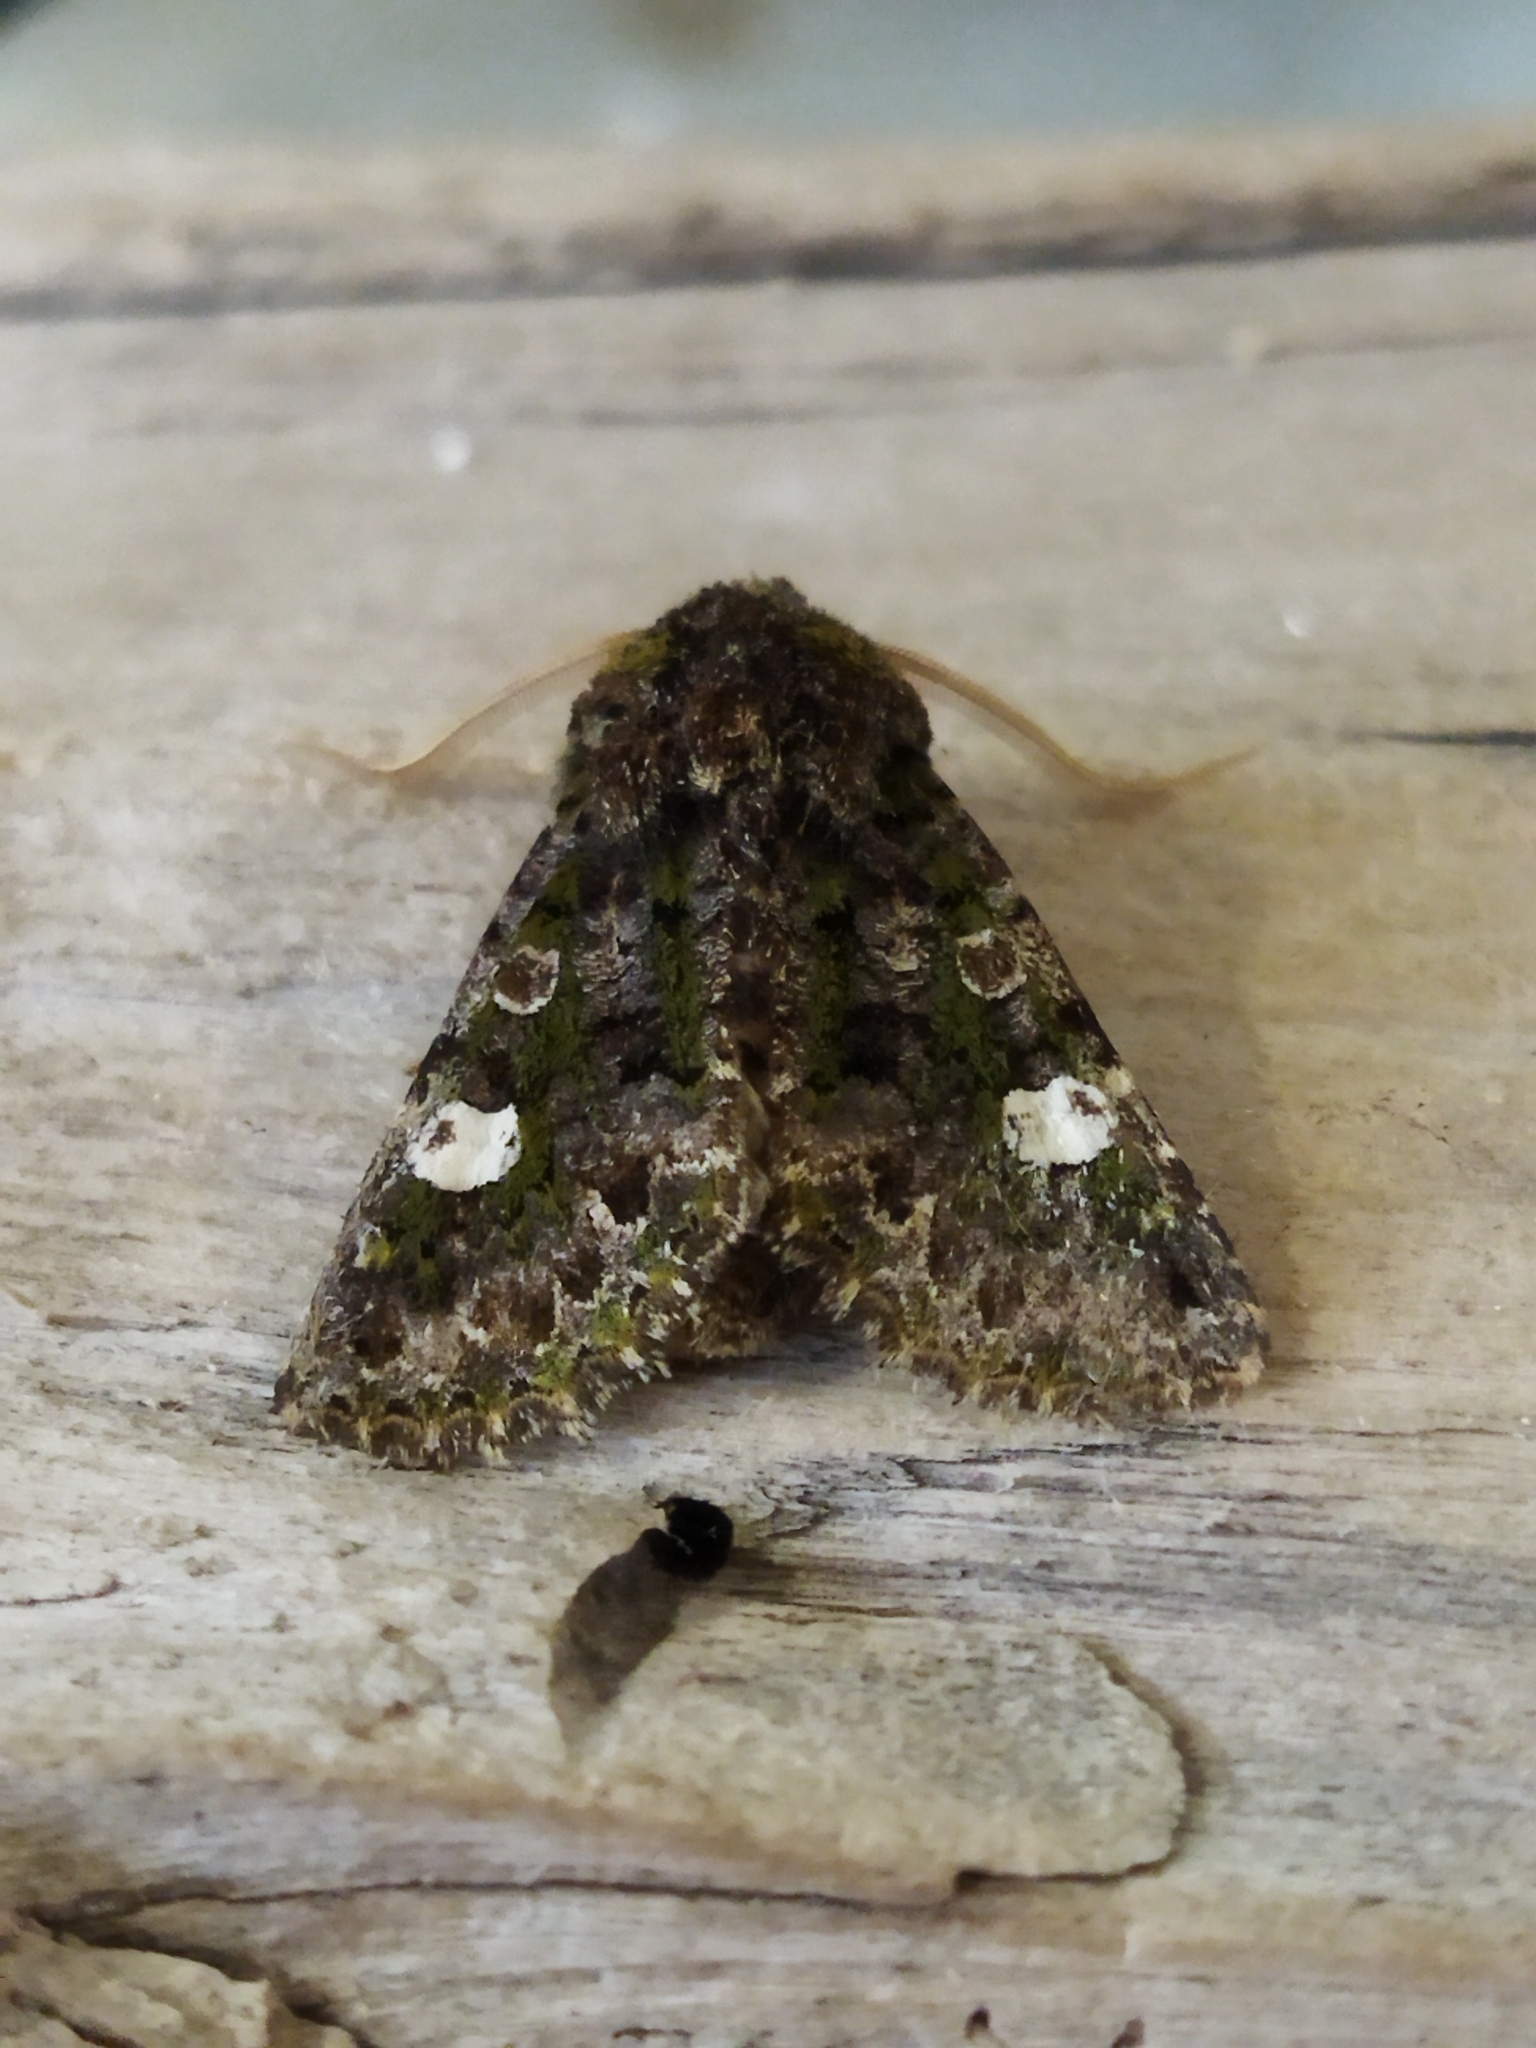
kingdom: Animalia
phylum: Arthropoda
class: Insecta
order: Lepidoptera
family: Noctuidae
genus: Valeria
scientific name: Valeria oleagina
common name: Green-brindled dot
